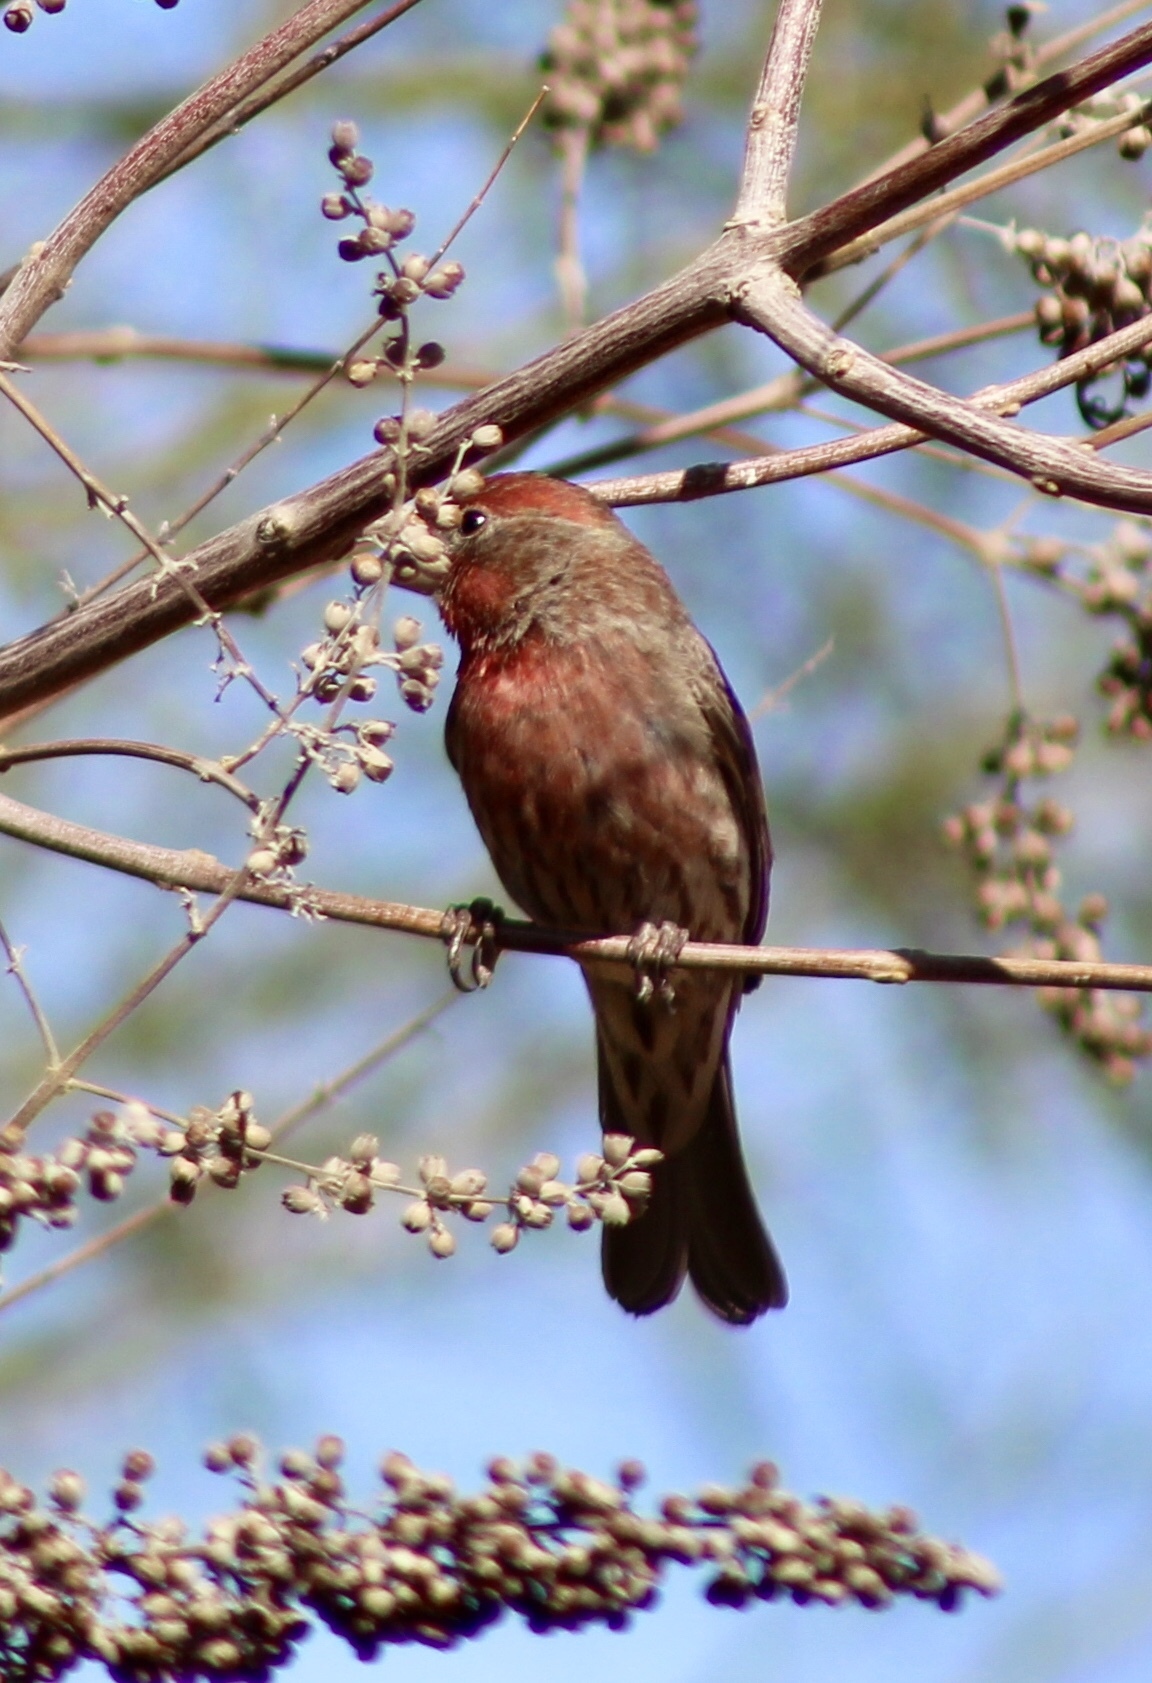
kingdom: Animalia
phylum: Chordata
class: Aves
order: Passeriformes
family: Fringillidae
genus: Haemorhous
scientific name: Haemorhous mexicanus
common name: House finch
